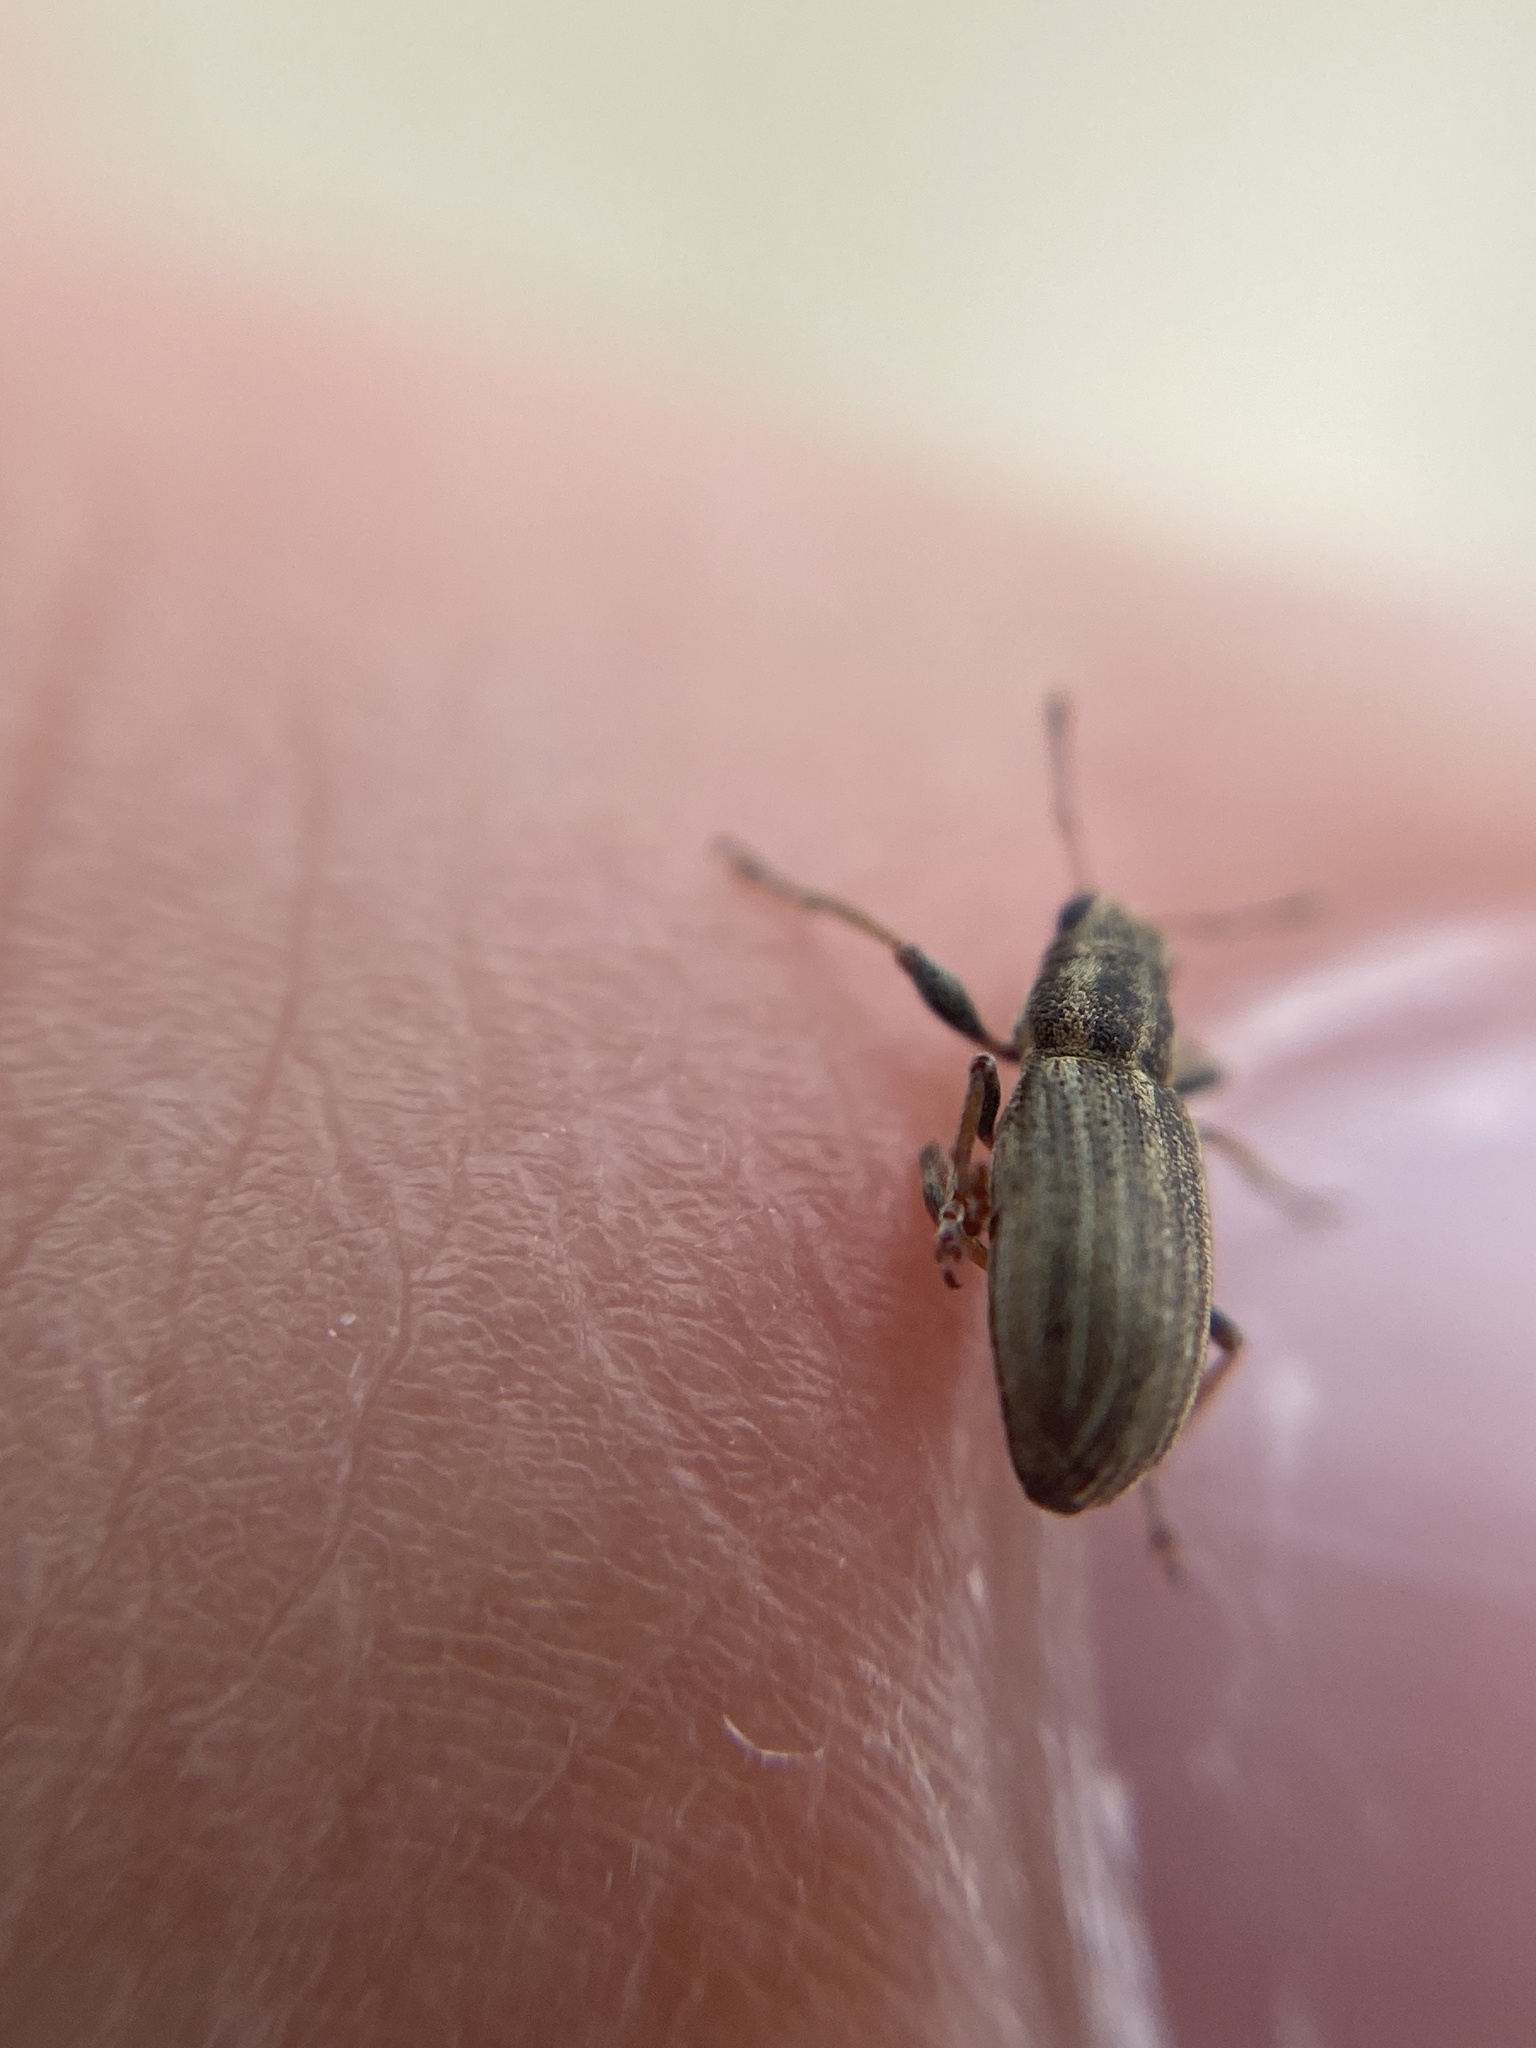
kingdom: Animalia
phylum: Arthropoda
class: Insecta
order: Coleoptera
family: Curculionidae
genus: Sitona
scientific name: Sitona lineatus
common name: Weevil
